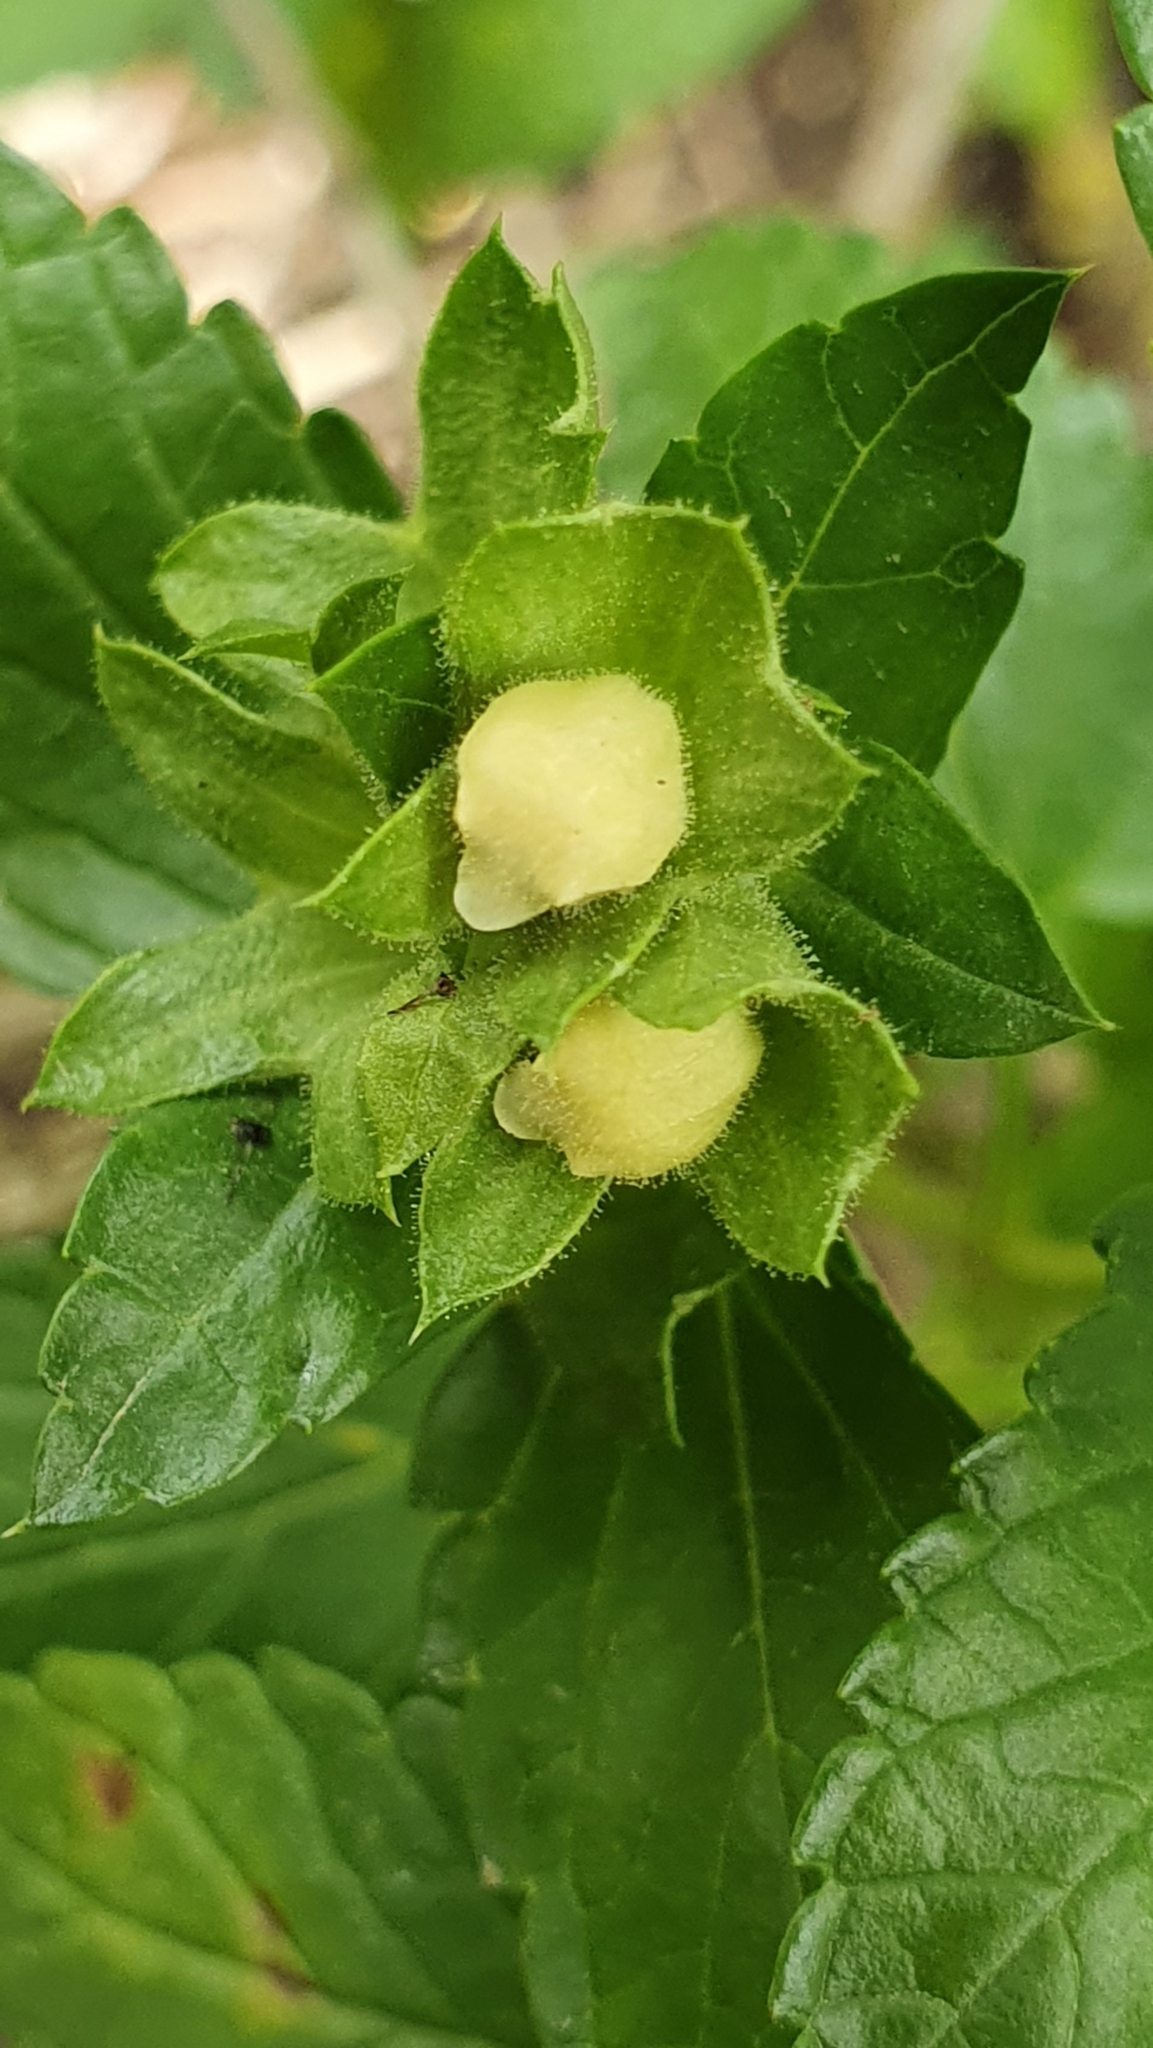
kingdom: Plantae
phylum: Tracheophyta
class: Magnoliopsida
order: Lamiales
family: Lamiaceae
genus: Prasium
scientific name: Prasium majus
